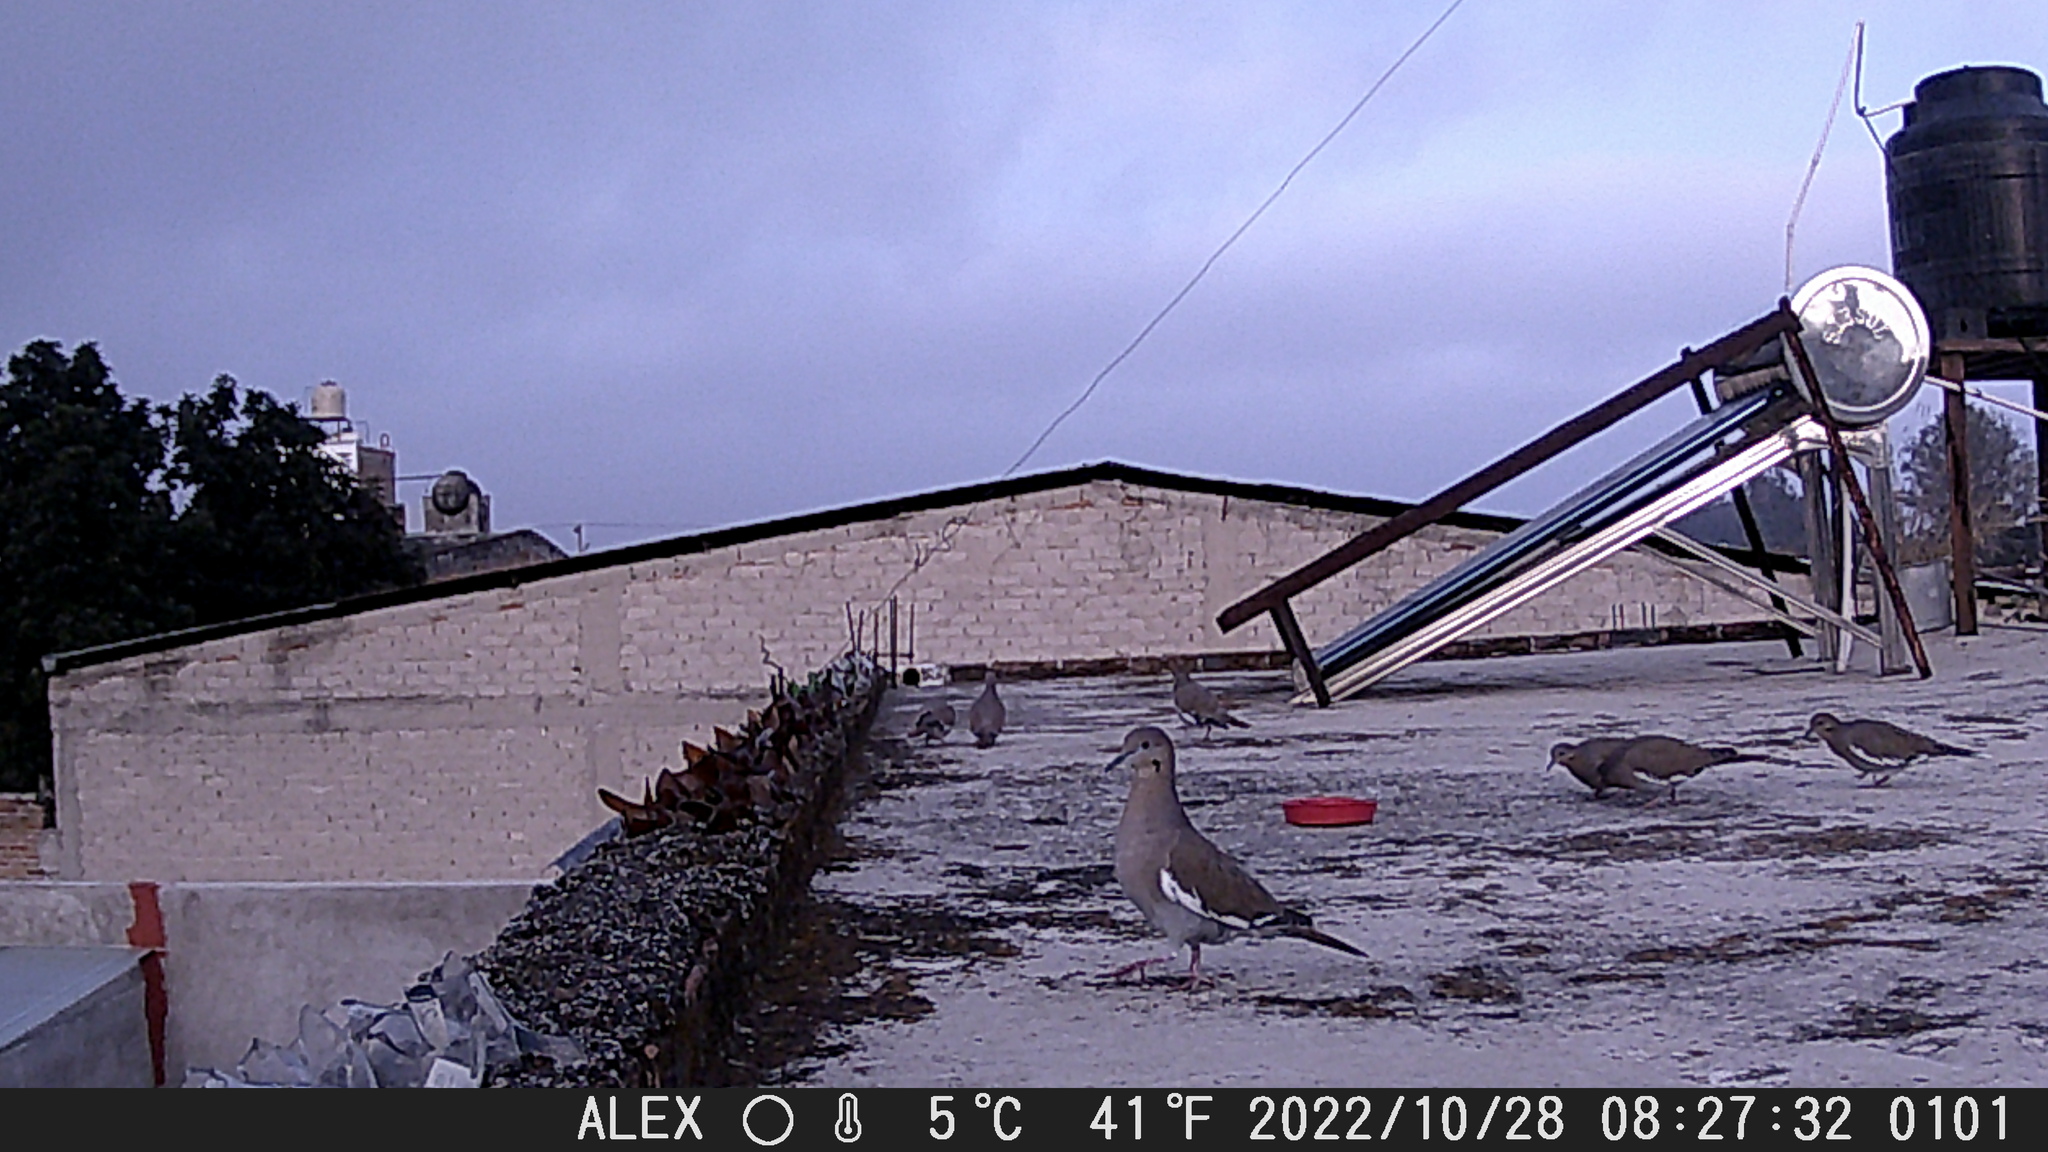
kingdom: Animalia
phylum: Chordata
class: Aves
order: Columbiformes
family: Columbidae
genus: Zenaida
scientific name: Zenaida asiatica
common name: White-winged dove
